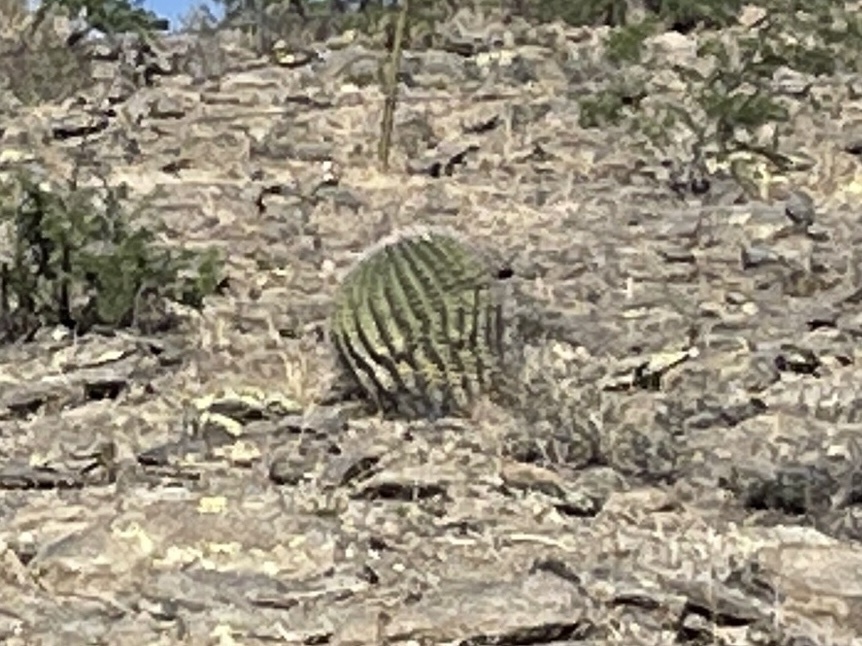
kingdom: Plantae
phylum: Tracheophyta
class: Magnoliopsida
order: Caryophyllales
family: Cactaceae
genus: Ferocactus
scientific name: Ferocactus wislizeni
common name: Candy barrel cactus
